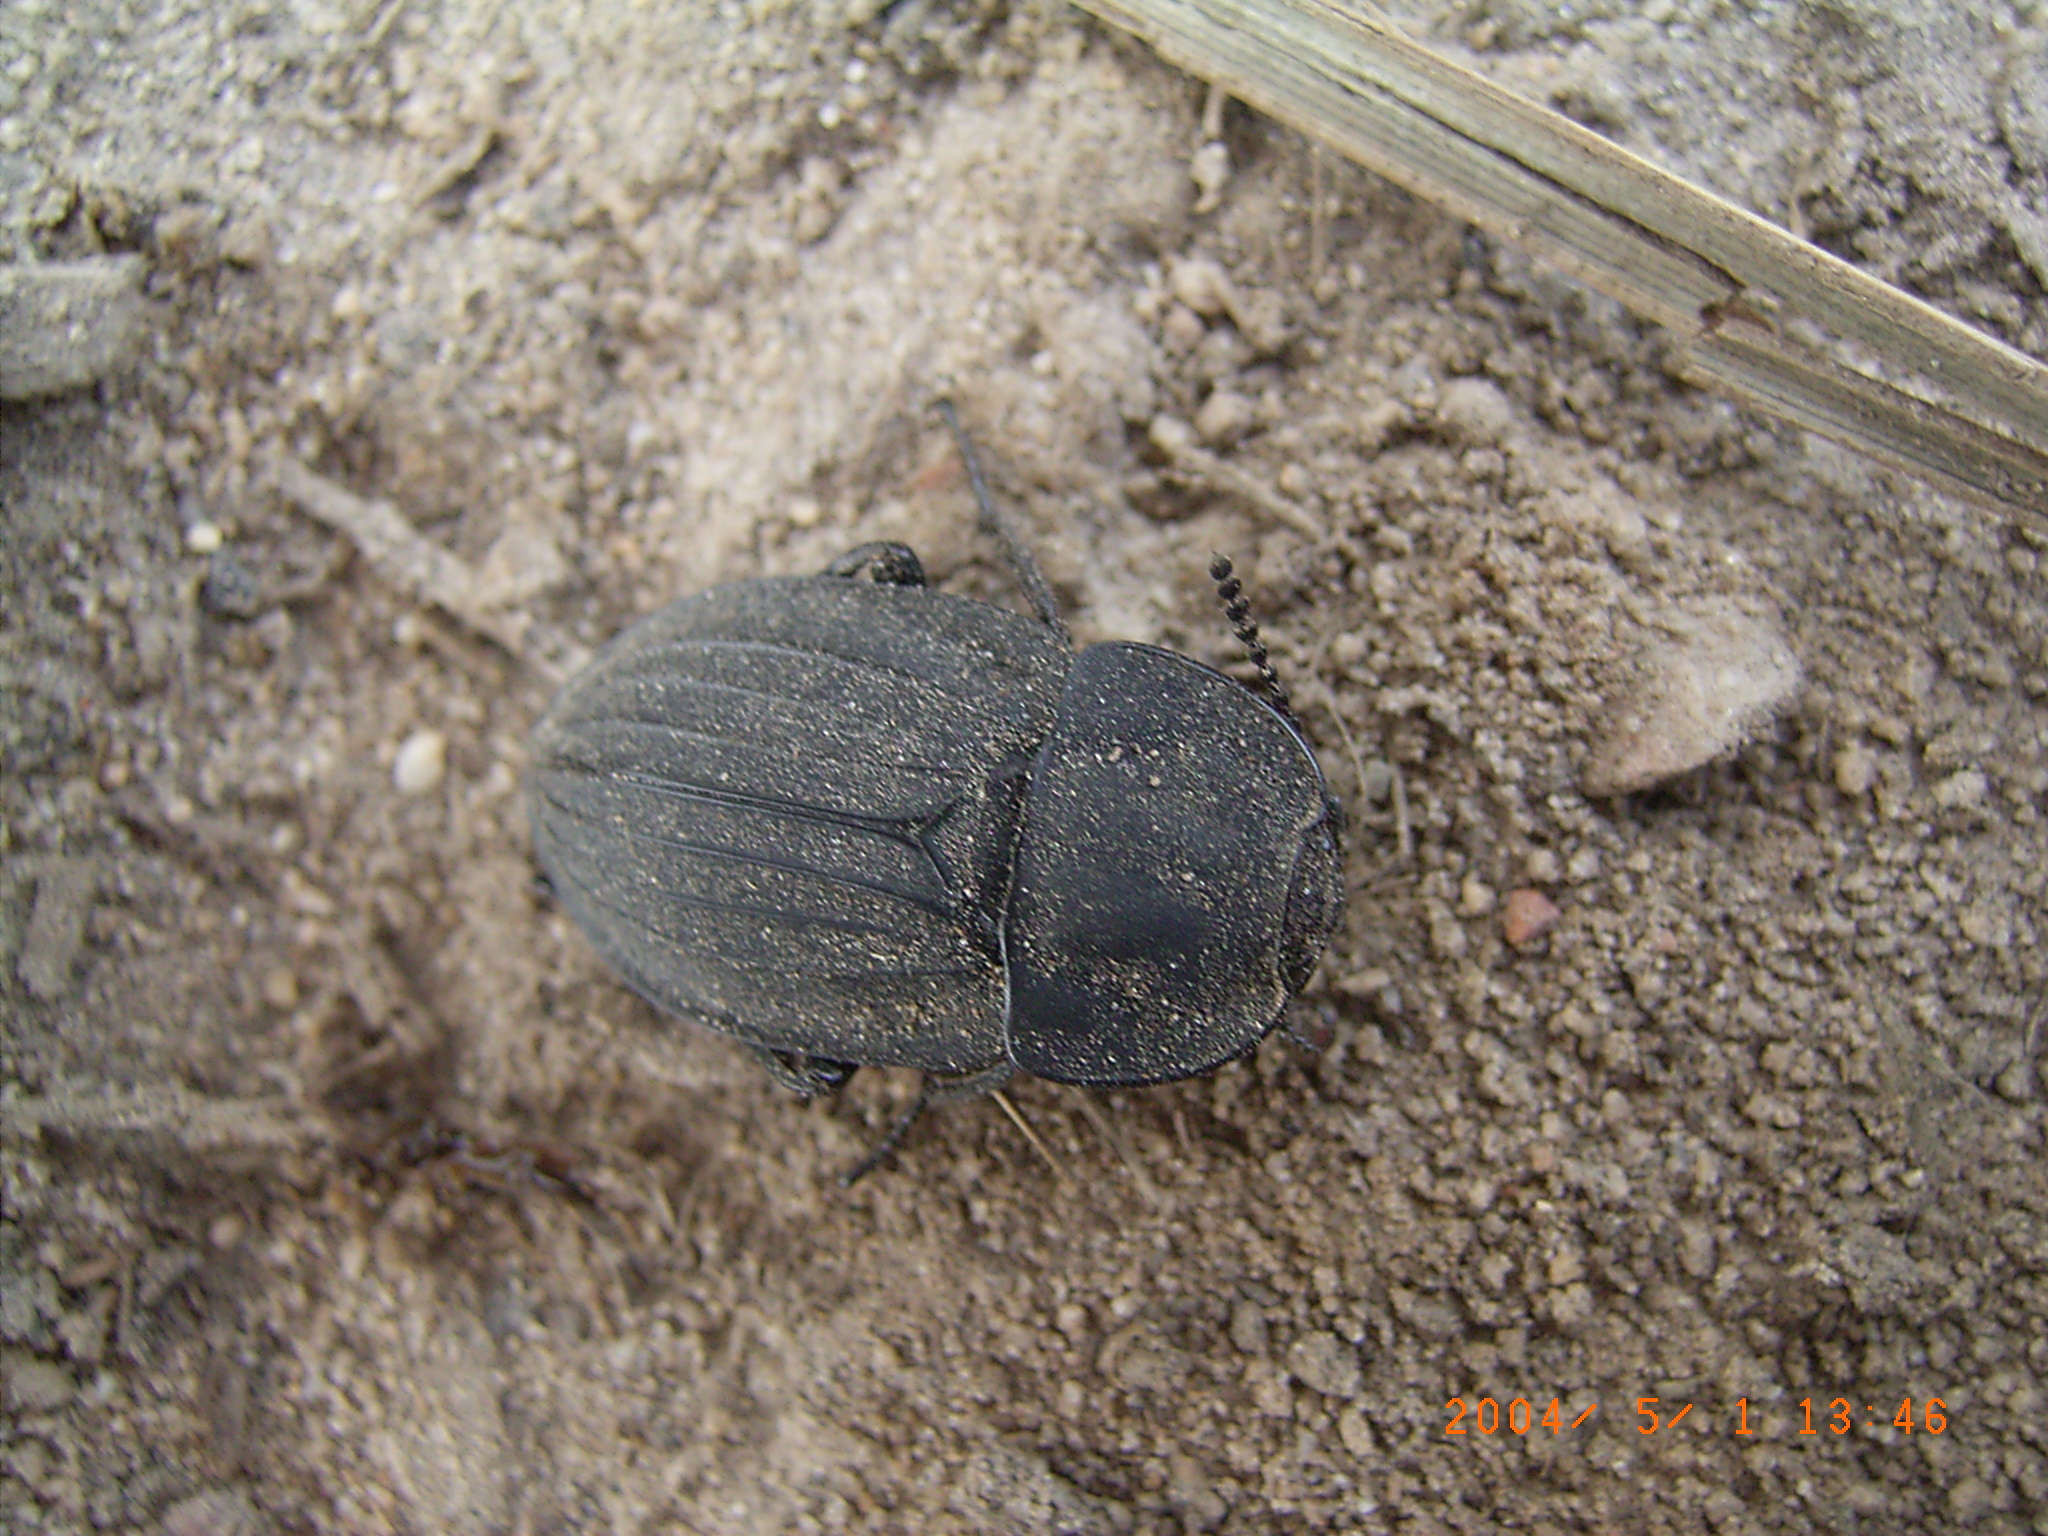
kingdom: Animalia
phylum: Arthropoda
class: Insecta
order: Coleoptera
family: Staphylinidae
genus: Silpha
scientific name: Silpha capicola
